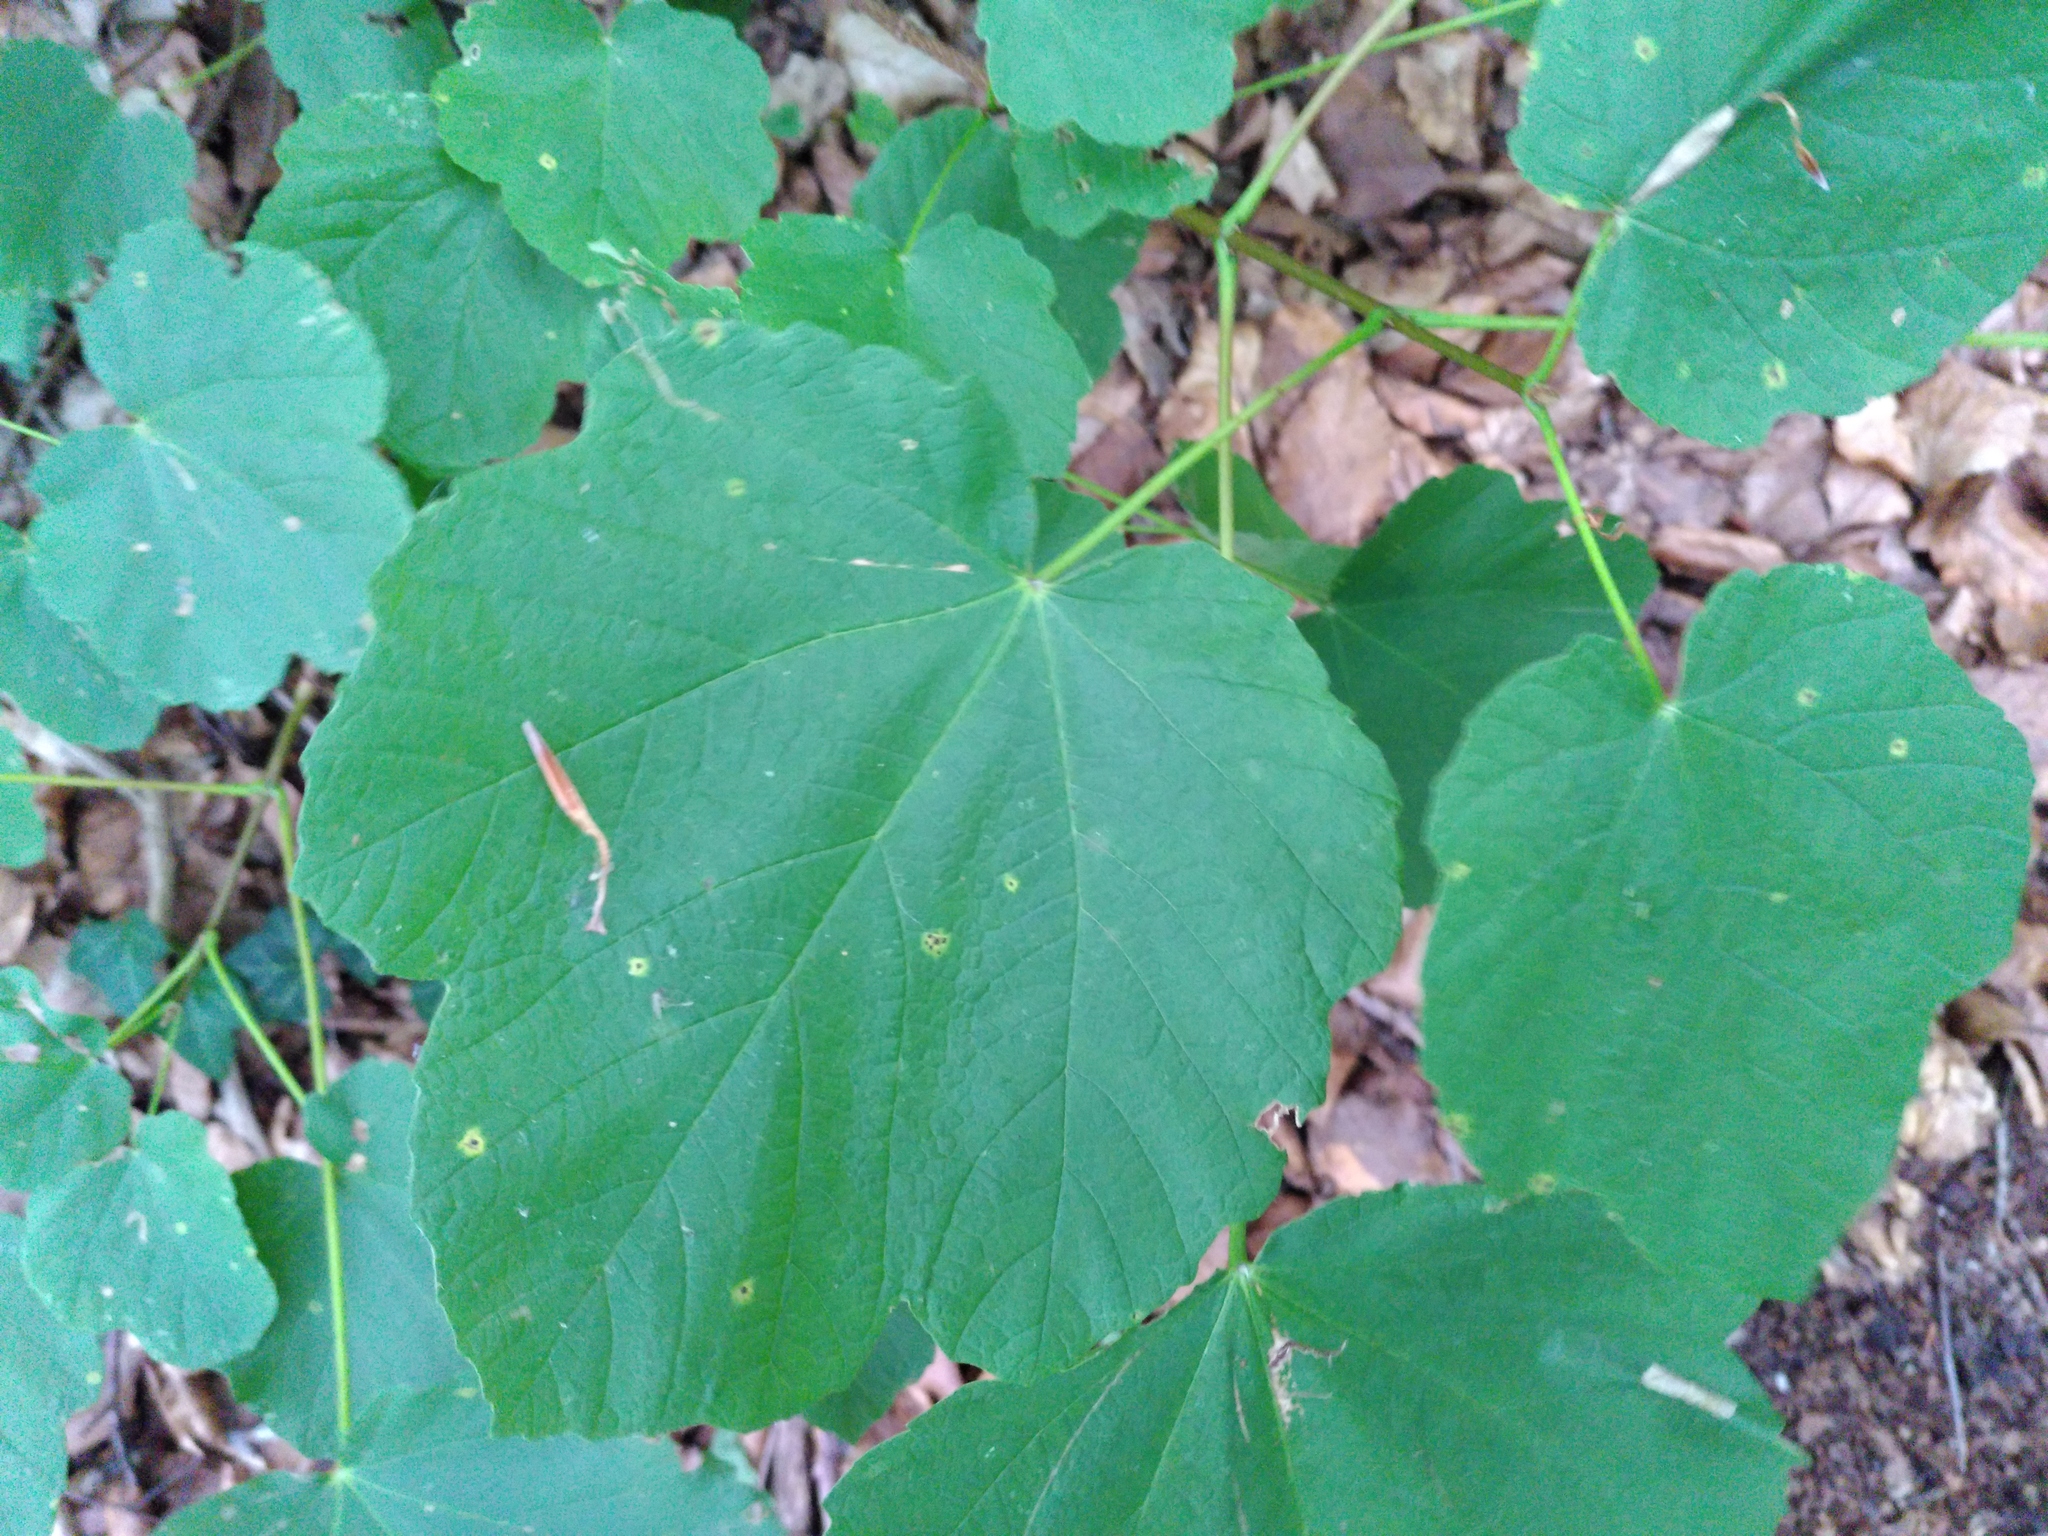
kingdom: Plantae
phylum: Tracheophyta
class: Magnoliopsida
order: Sapindales
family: Sapindaceae
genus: Acer
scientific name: Acer opalus
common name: Italian maple
